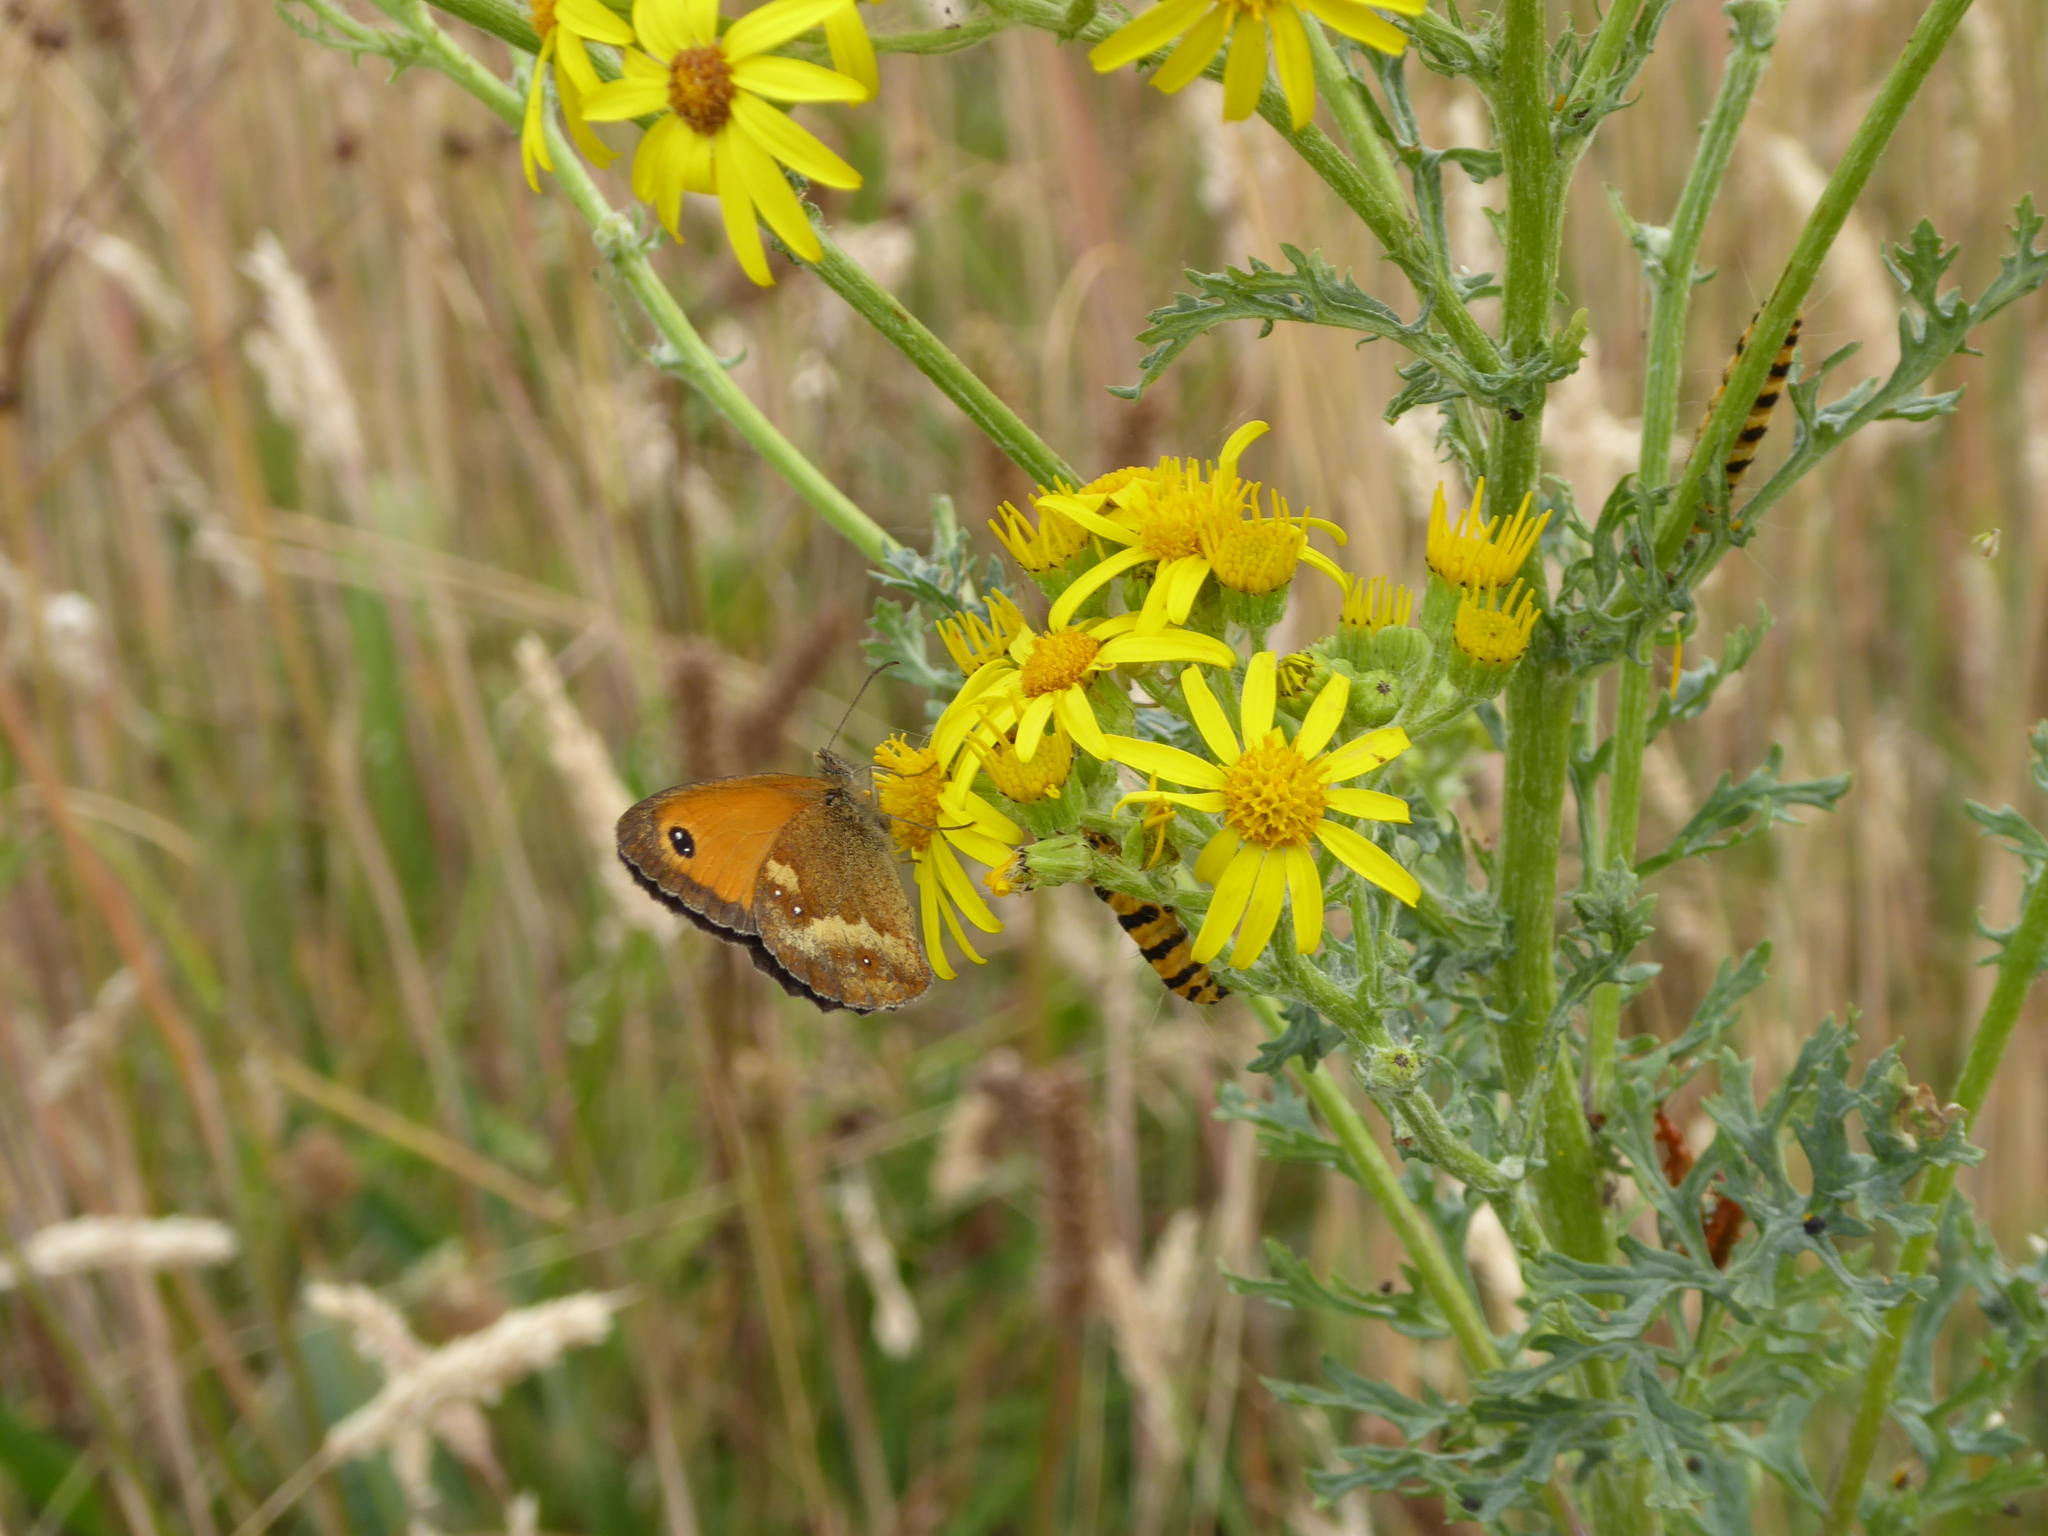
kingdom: Animalia
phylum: Arthropoda
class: Insecta
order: Lepidoptera
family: Nymphalidae
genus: Pyronia
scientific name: Pyronia tithonus
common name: Gatekeeper
